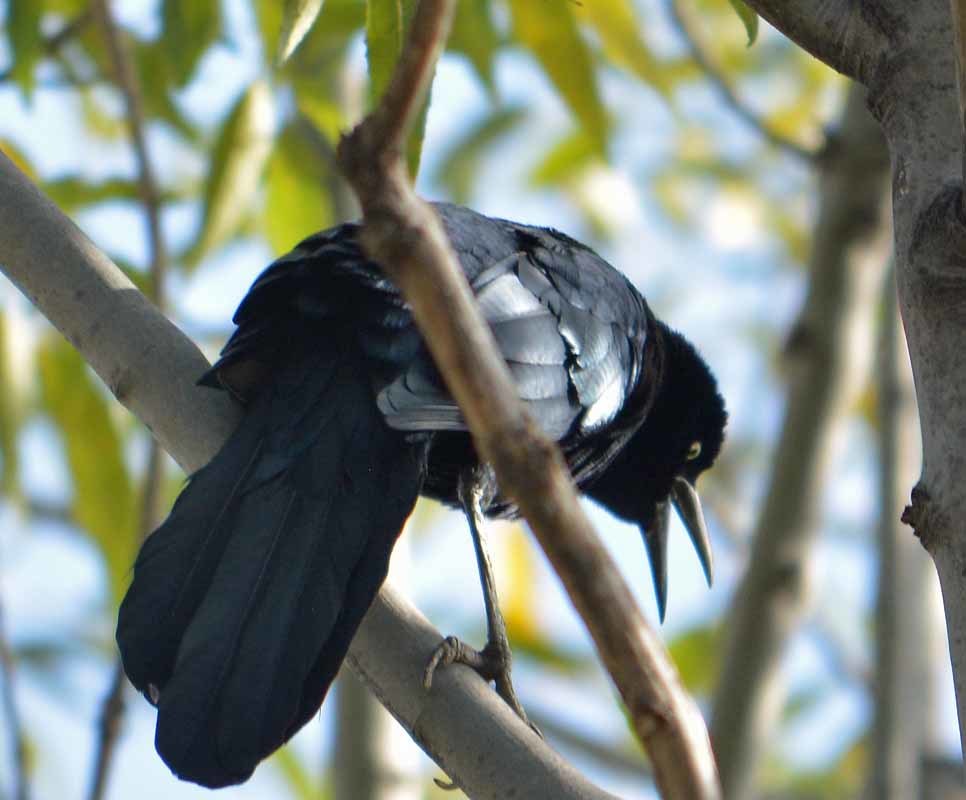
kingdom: Animalia
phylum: Chordata
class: Aves
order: Passeriformes
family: Icteridae
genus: Quiscalus
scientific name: Quiscalus mexicanus
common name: Great-tailed grackle
